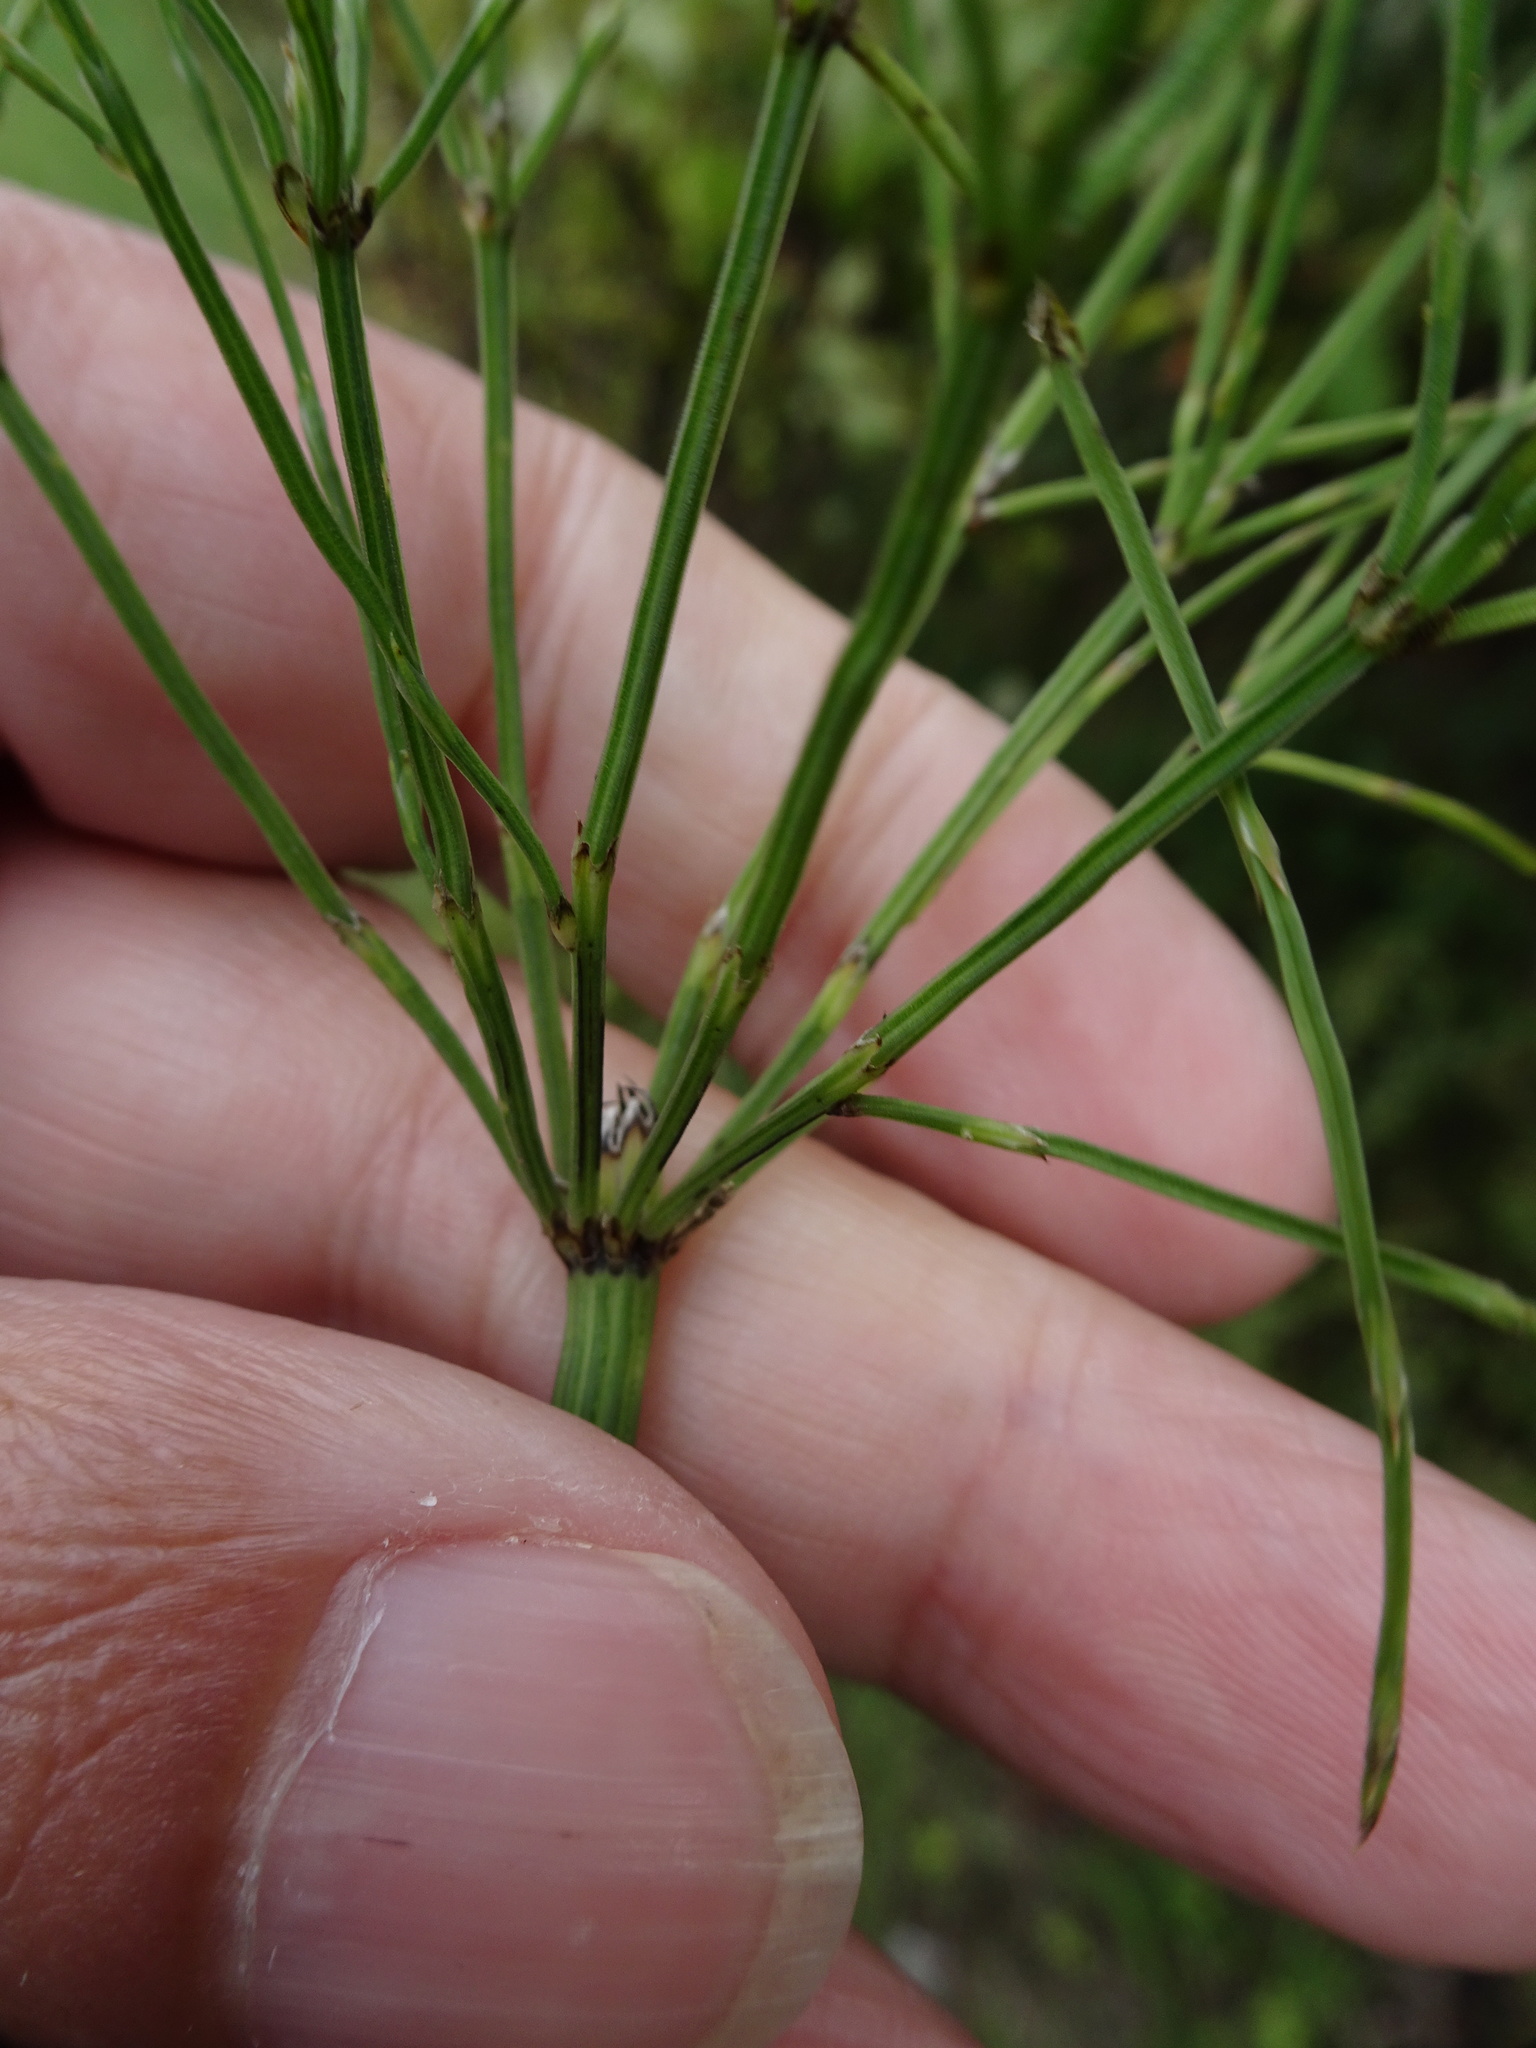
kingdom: Plantae
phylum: Tracheophyta
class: Polypodiopsida
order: Equisetales
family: Equisetaceae
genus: Equisetum
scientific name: Equisetum arvense
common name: Field horsetail
